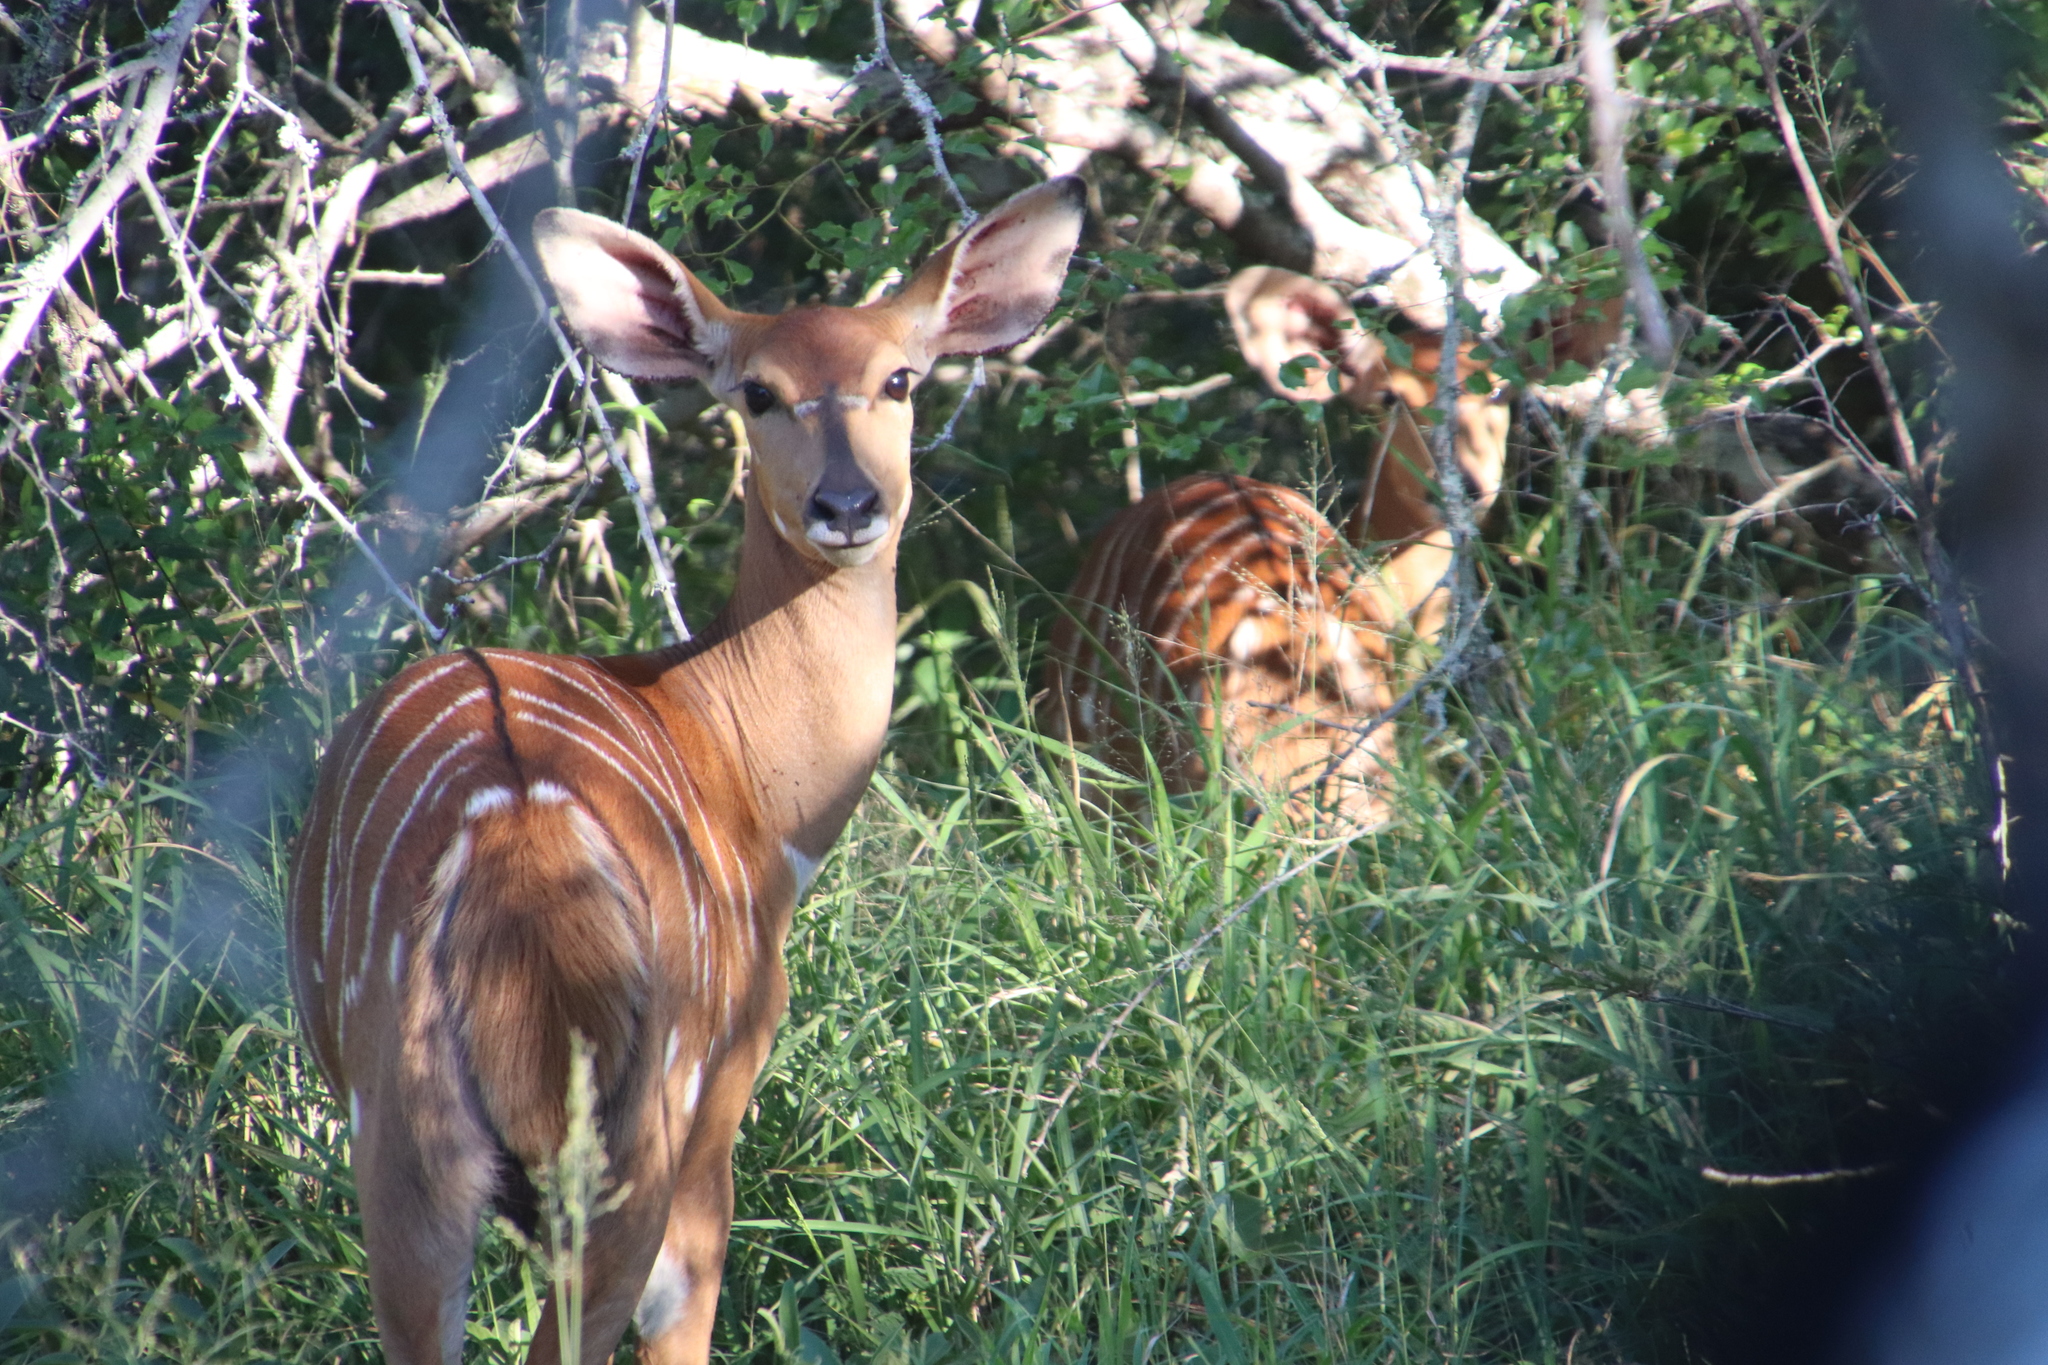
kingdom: Animalia
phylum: Chordata
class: Mammalia
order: Artiodactyla
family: Bovidae
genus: Tragelaphus
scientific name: Tragelaphus angasii
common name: Nyala
